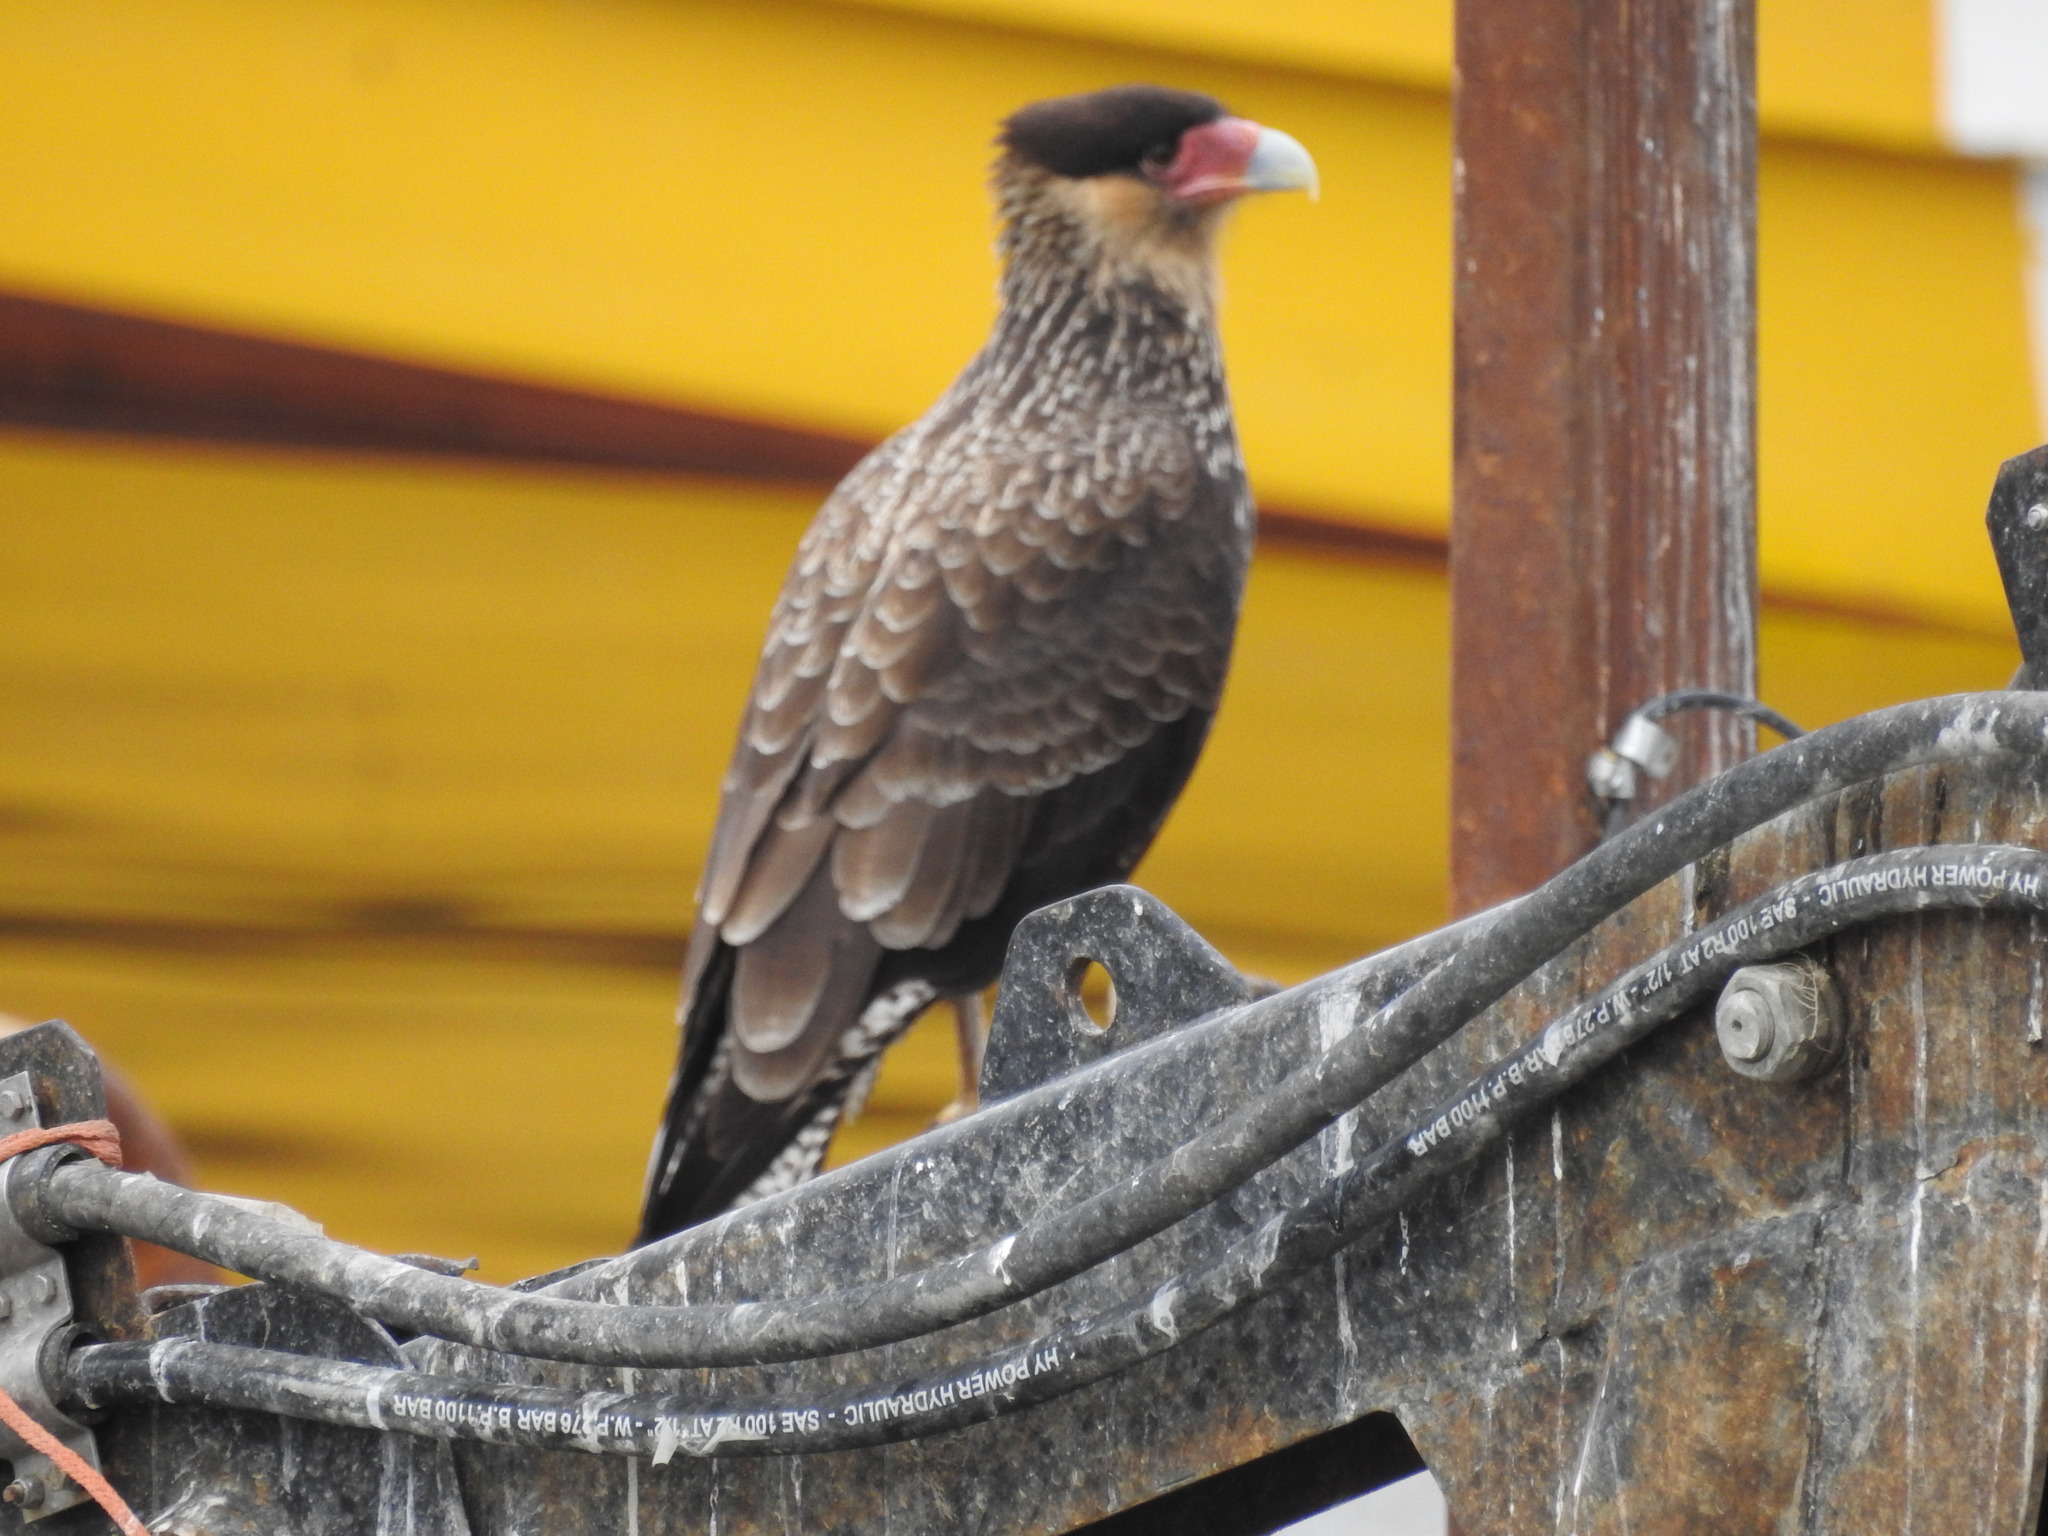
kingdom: Animalia
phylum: Chordata
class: Aves
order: Falconiformes
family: Falconidae
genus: Caracara
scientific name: Caracara plancus
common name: Southern caracara
